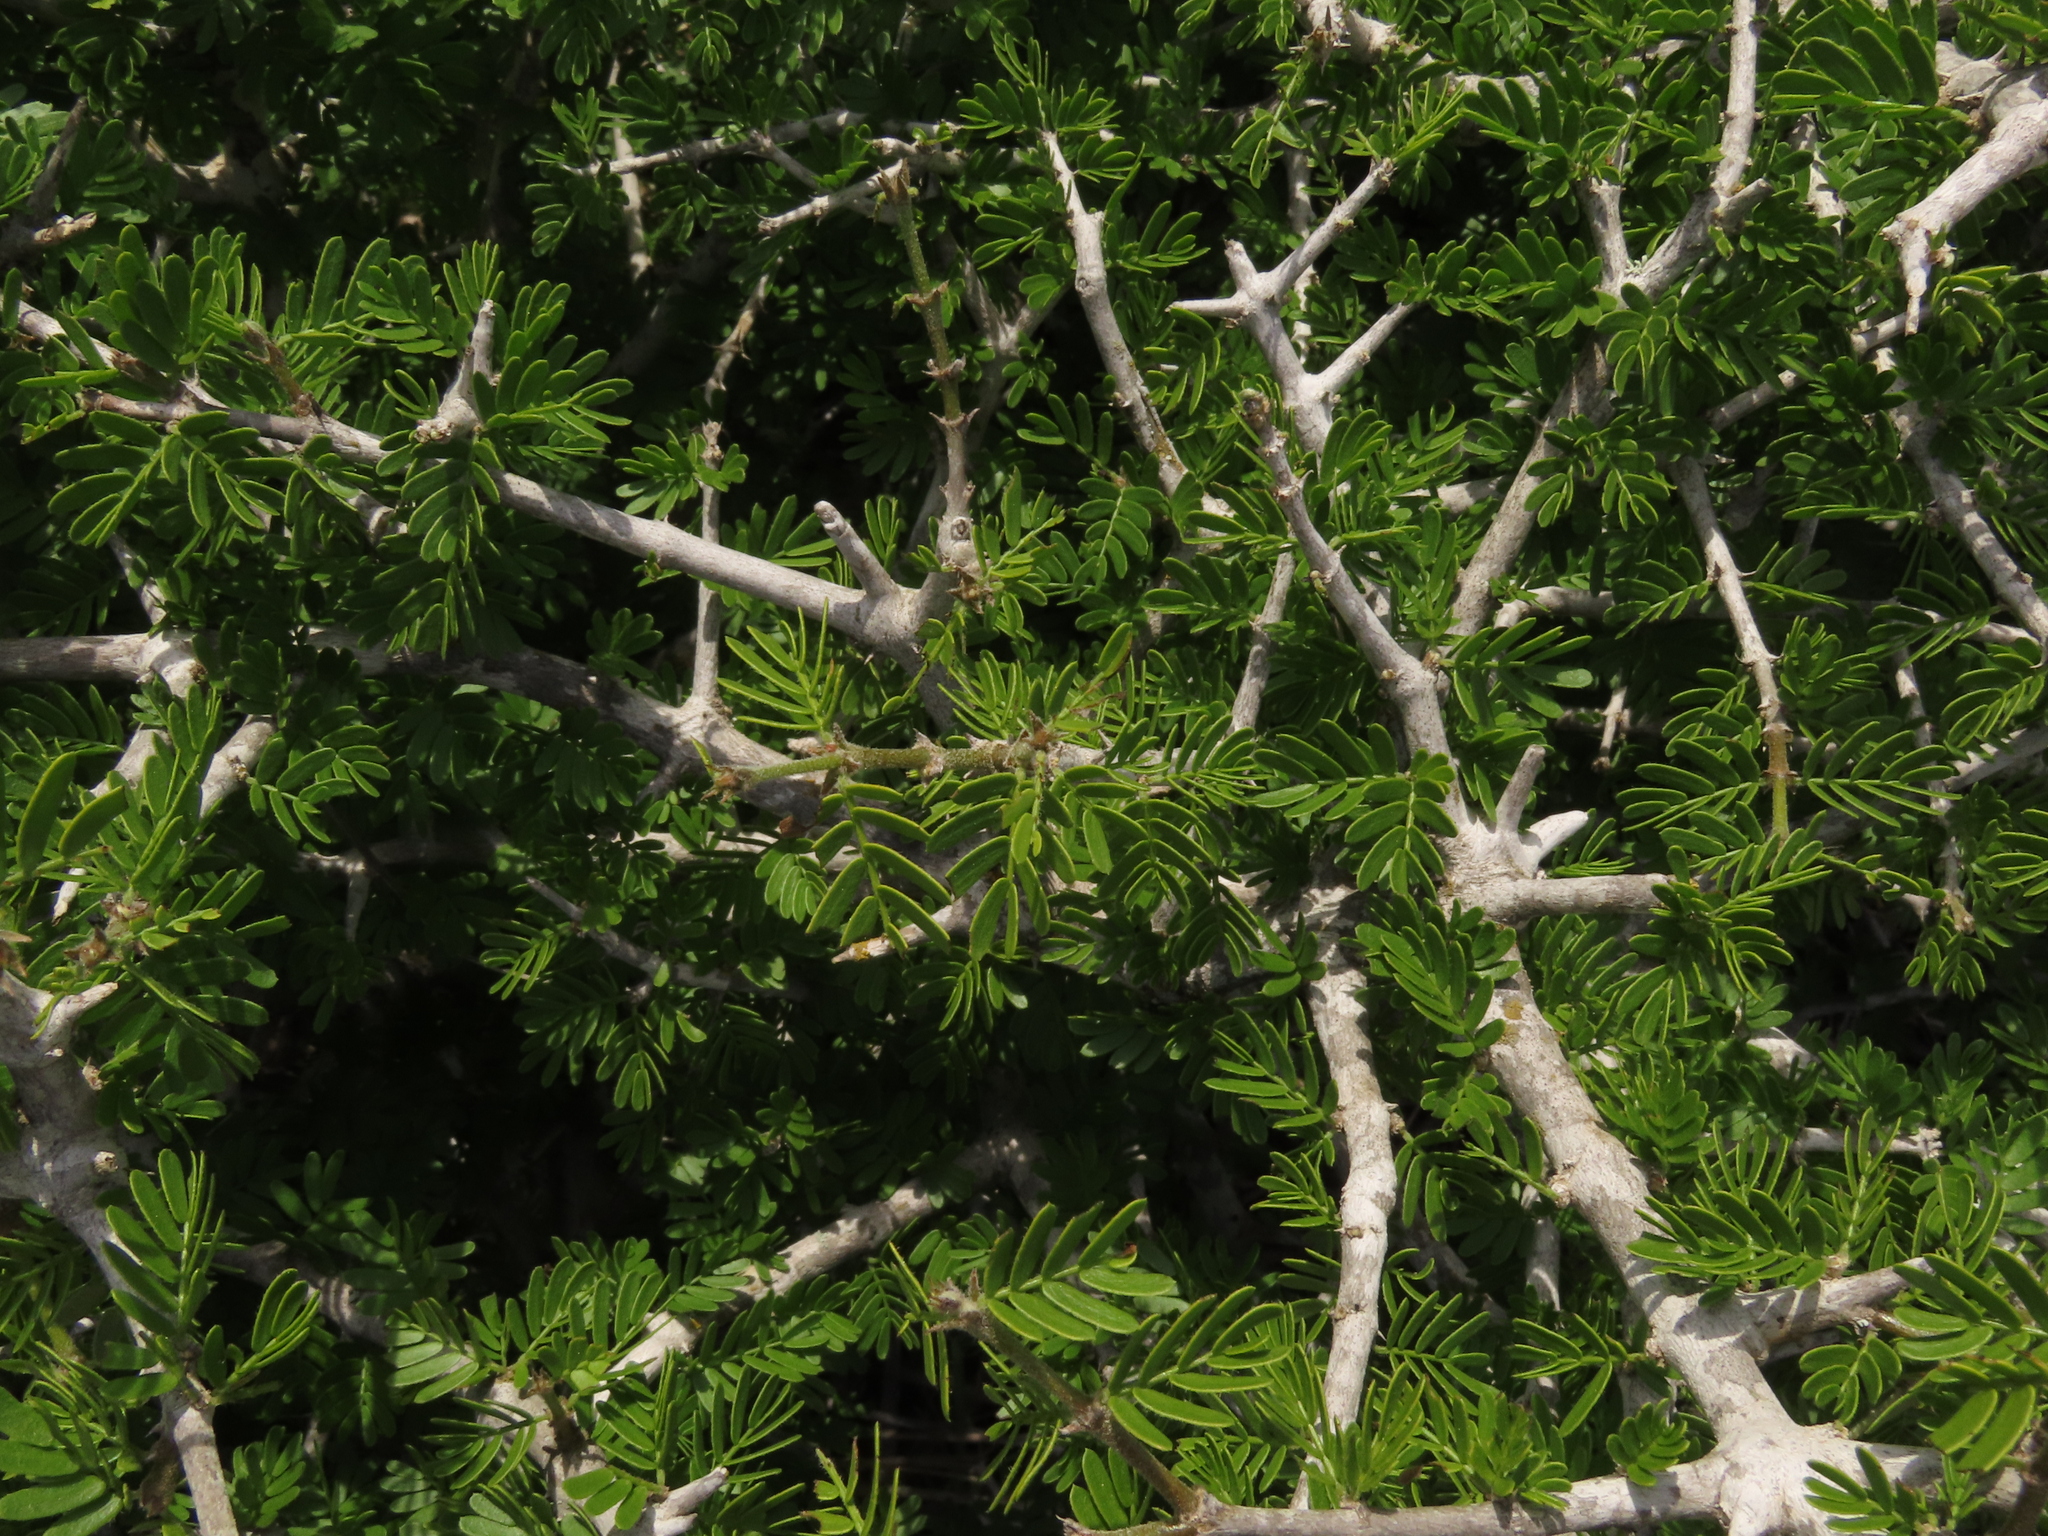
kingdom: Plantae
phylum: Tracheophyta
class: Magnoliopsida
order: Zygophyllales
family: Zygophyllaceae
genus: Porlieria
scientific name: Porlieria chilensis
